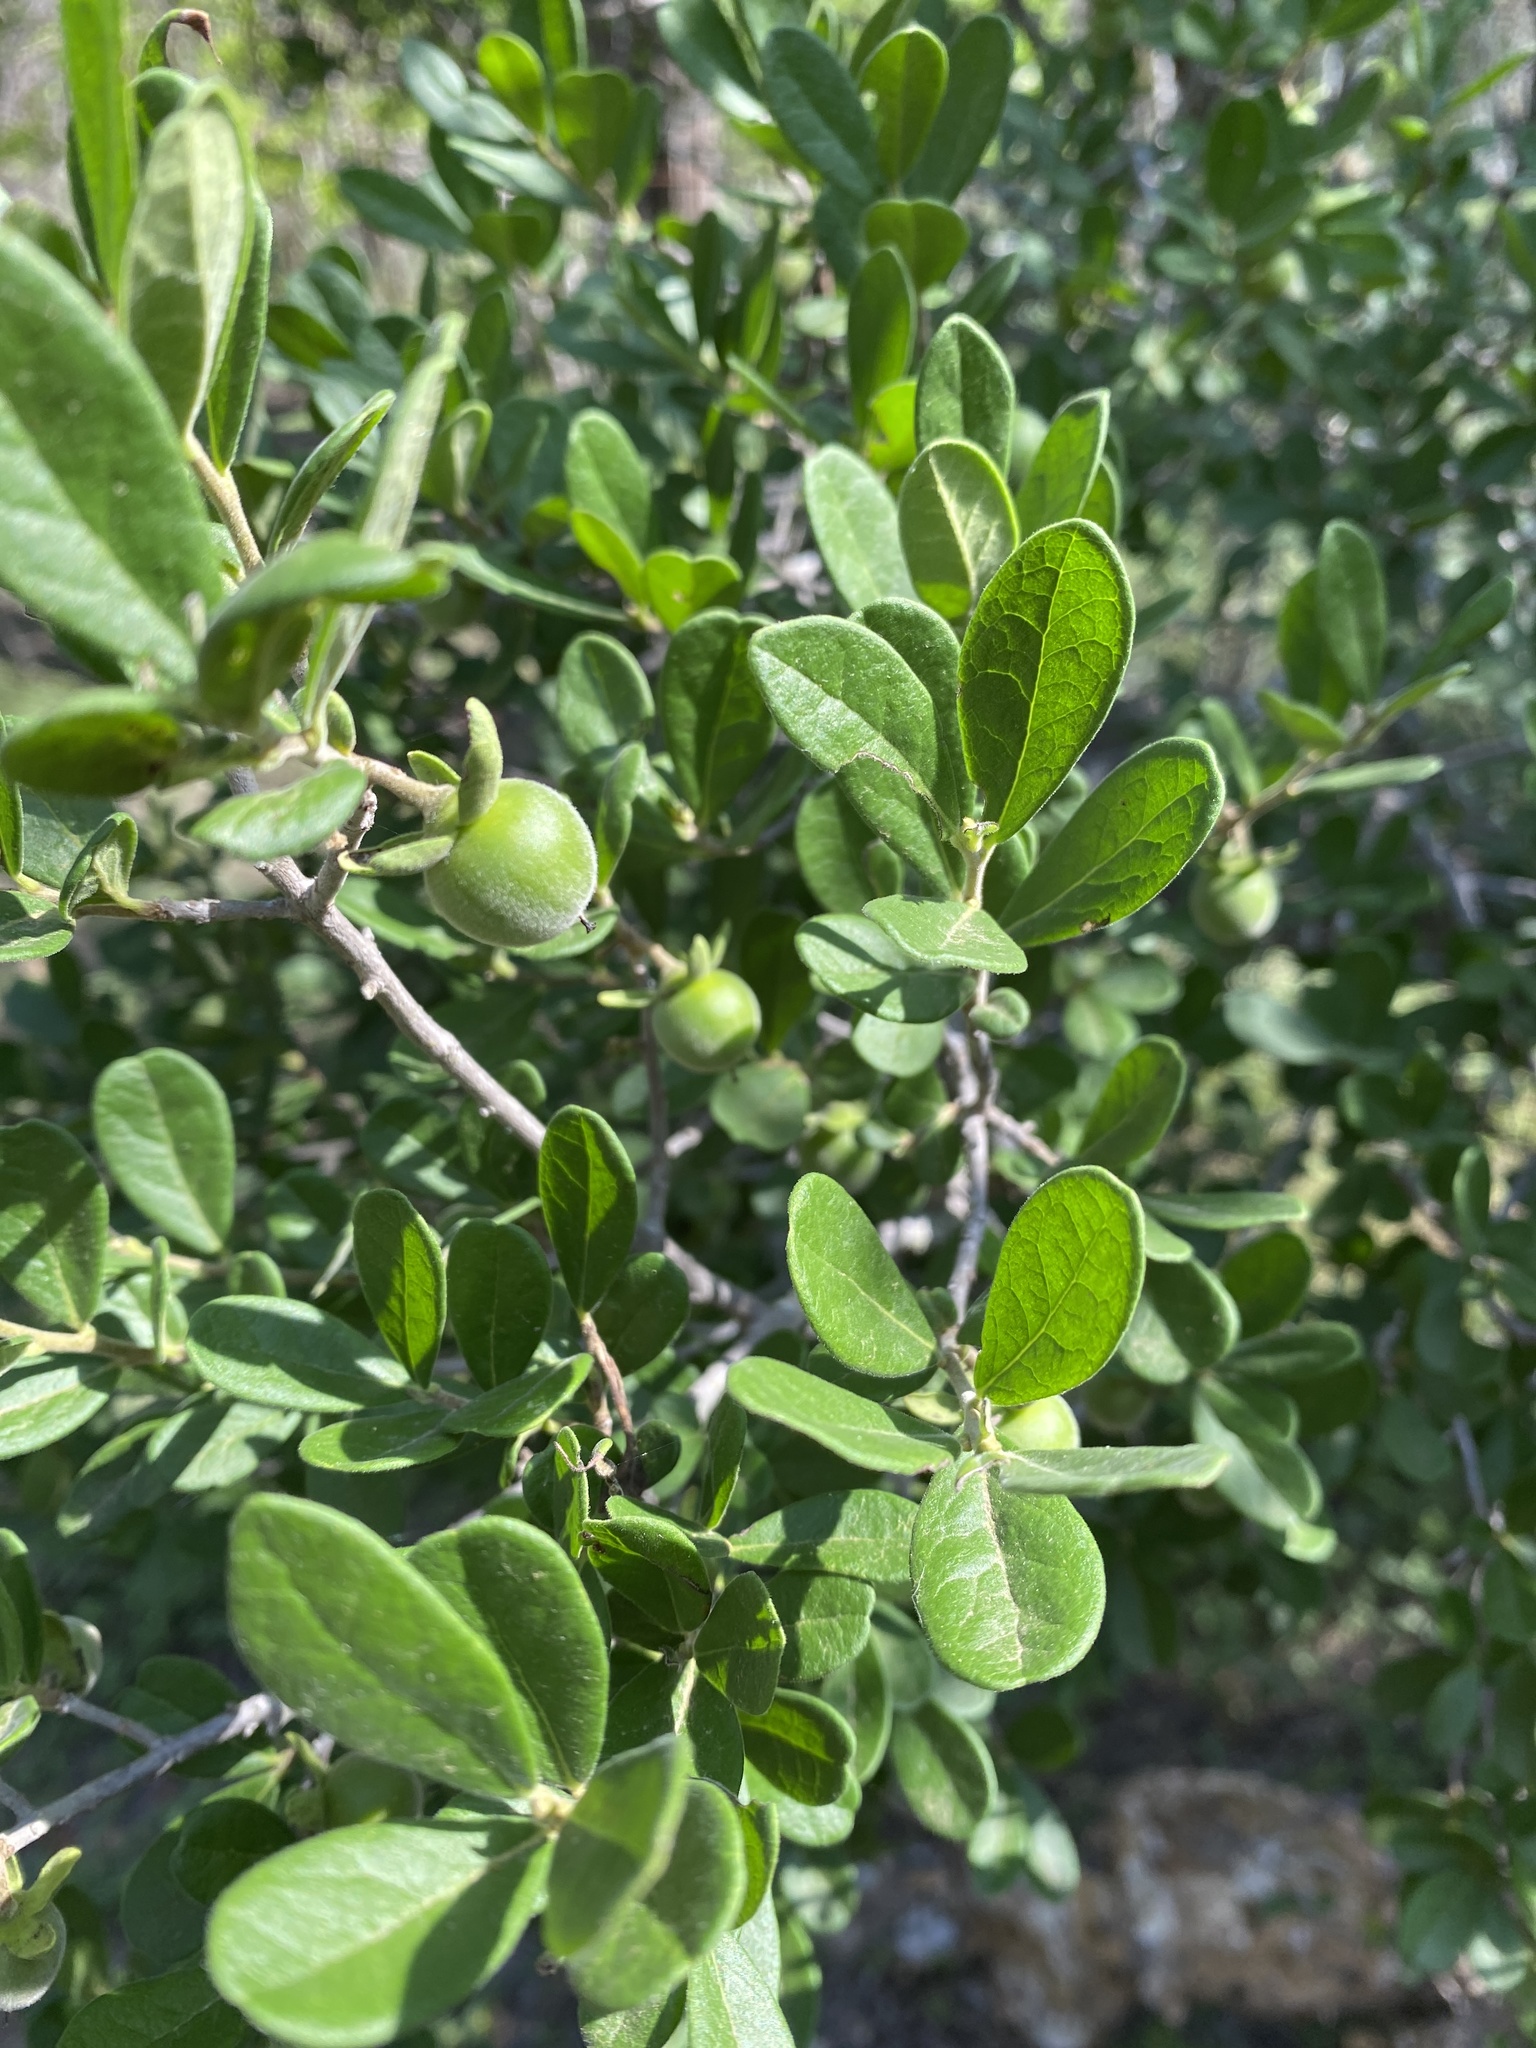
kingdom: Plantae
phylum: Tracheophyta
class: Magnoliopsida
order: Ericales
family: Ebenaceae
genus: Diospyros
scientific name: Diospyros texana
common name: Texas persimmon
